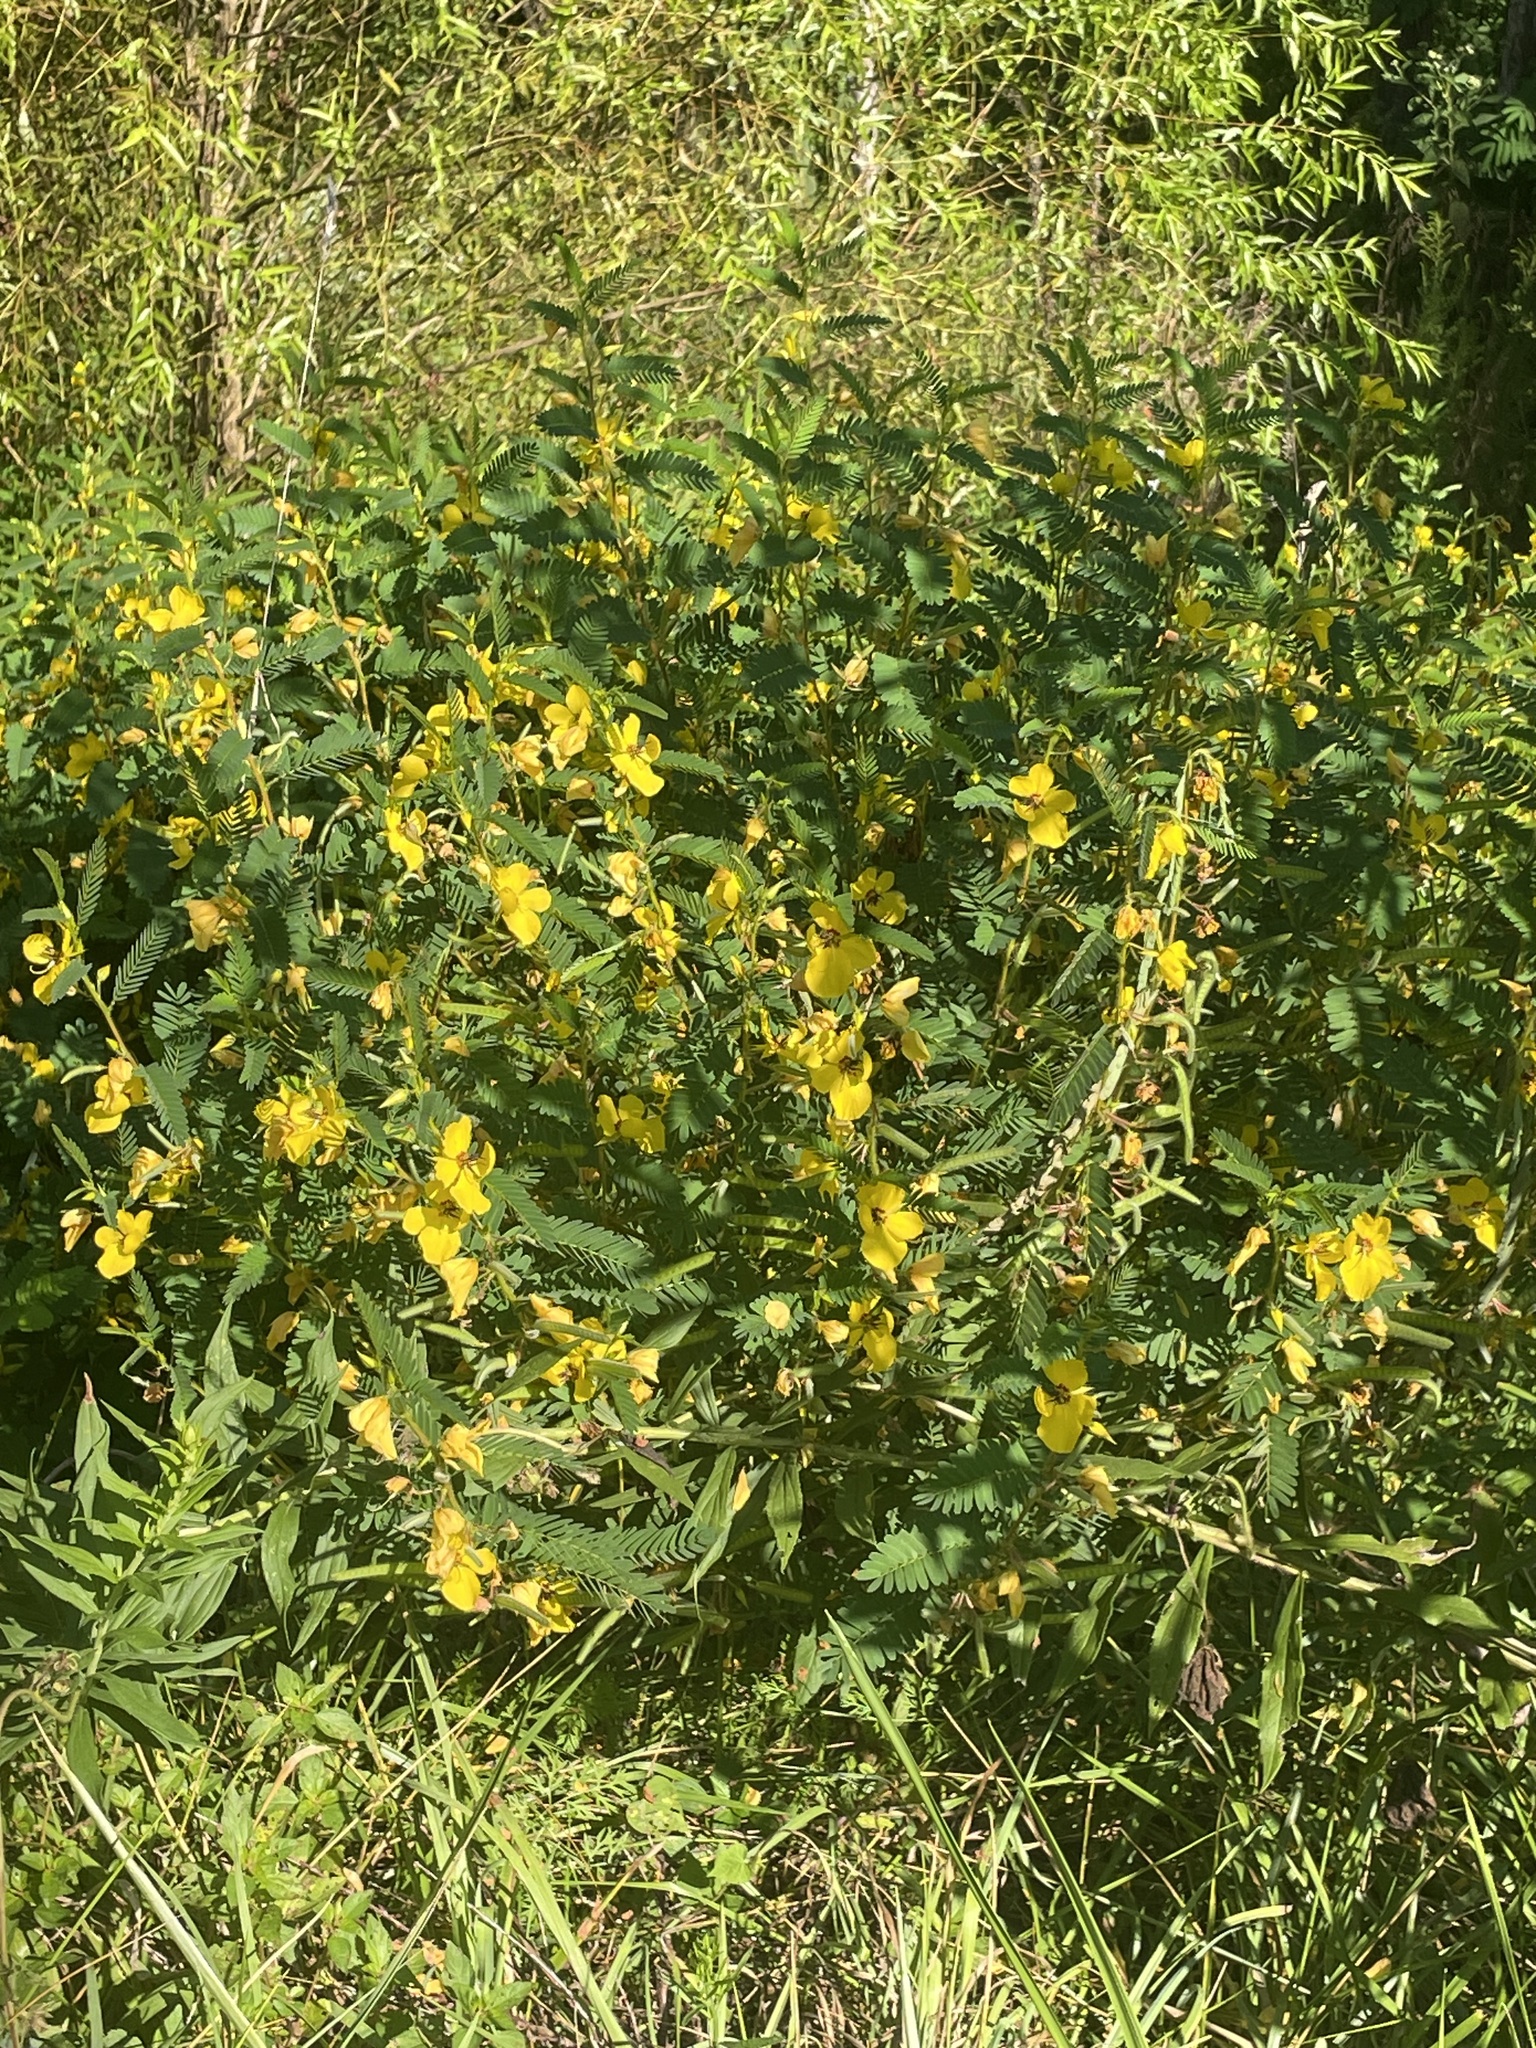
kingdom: Plantae
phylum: Tracheophyta
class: Magnoliopsida
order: Fabales
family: Fabaceae
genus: Chamaecrista
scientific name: Chamaecrista fasciculata
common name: Golden cassia
